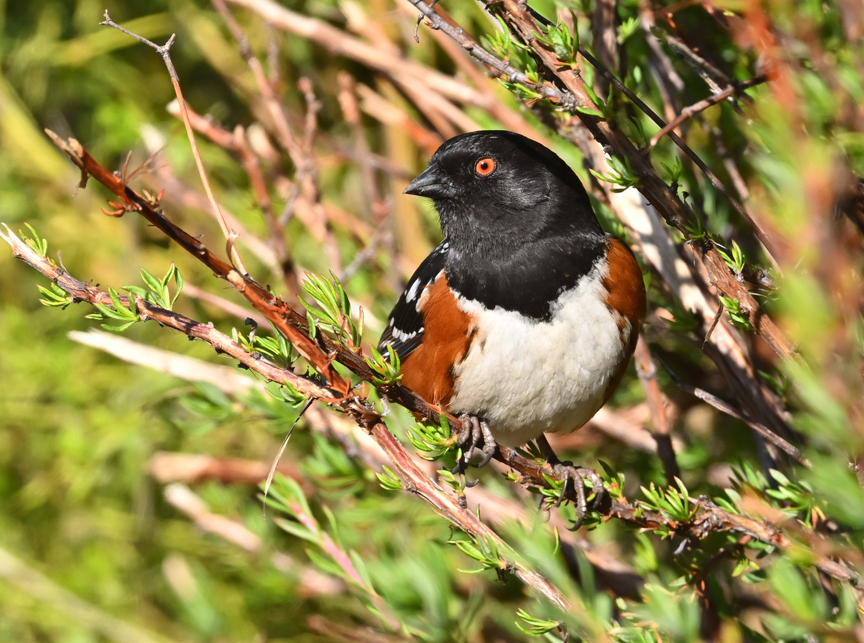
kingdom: Animalia
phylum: Chordata
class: Aves
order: Passeriformes
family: Passerellidae
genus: Pipilo
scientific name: Pipilo maculatus
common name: Spotted towhee
